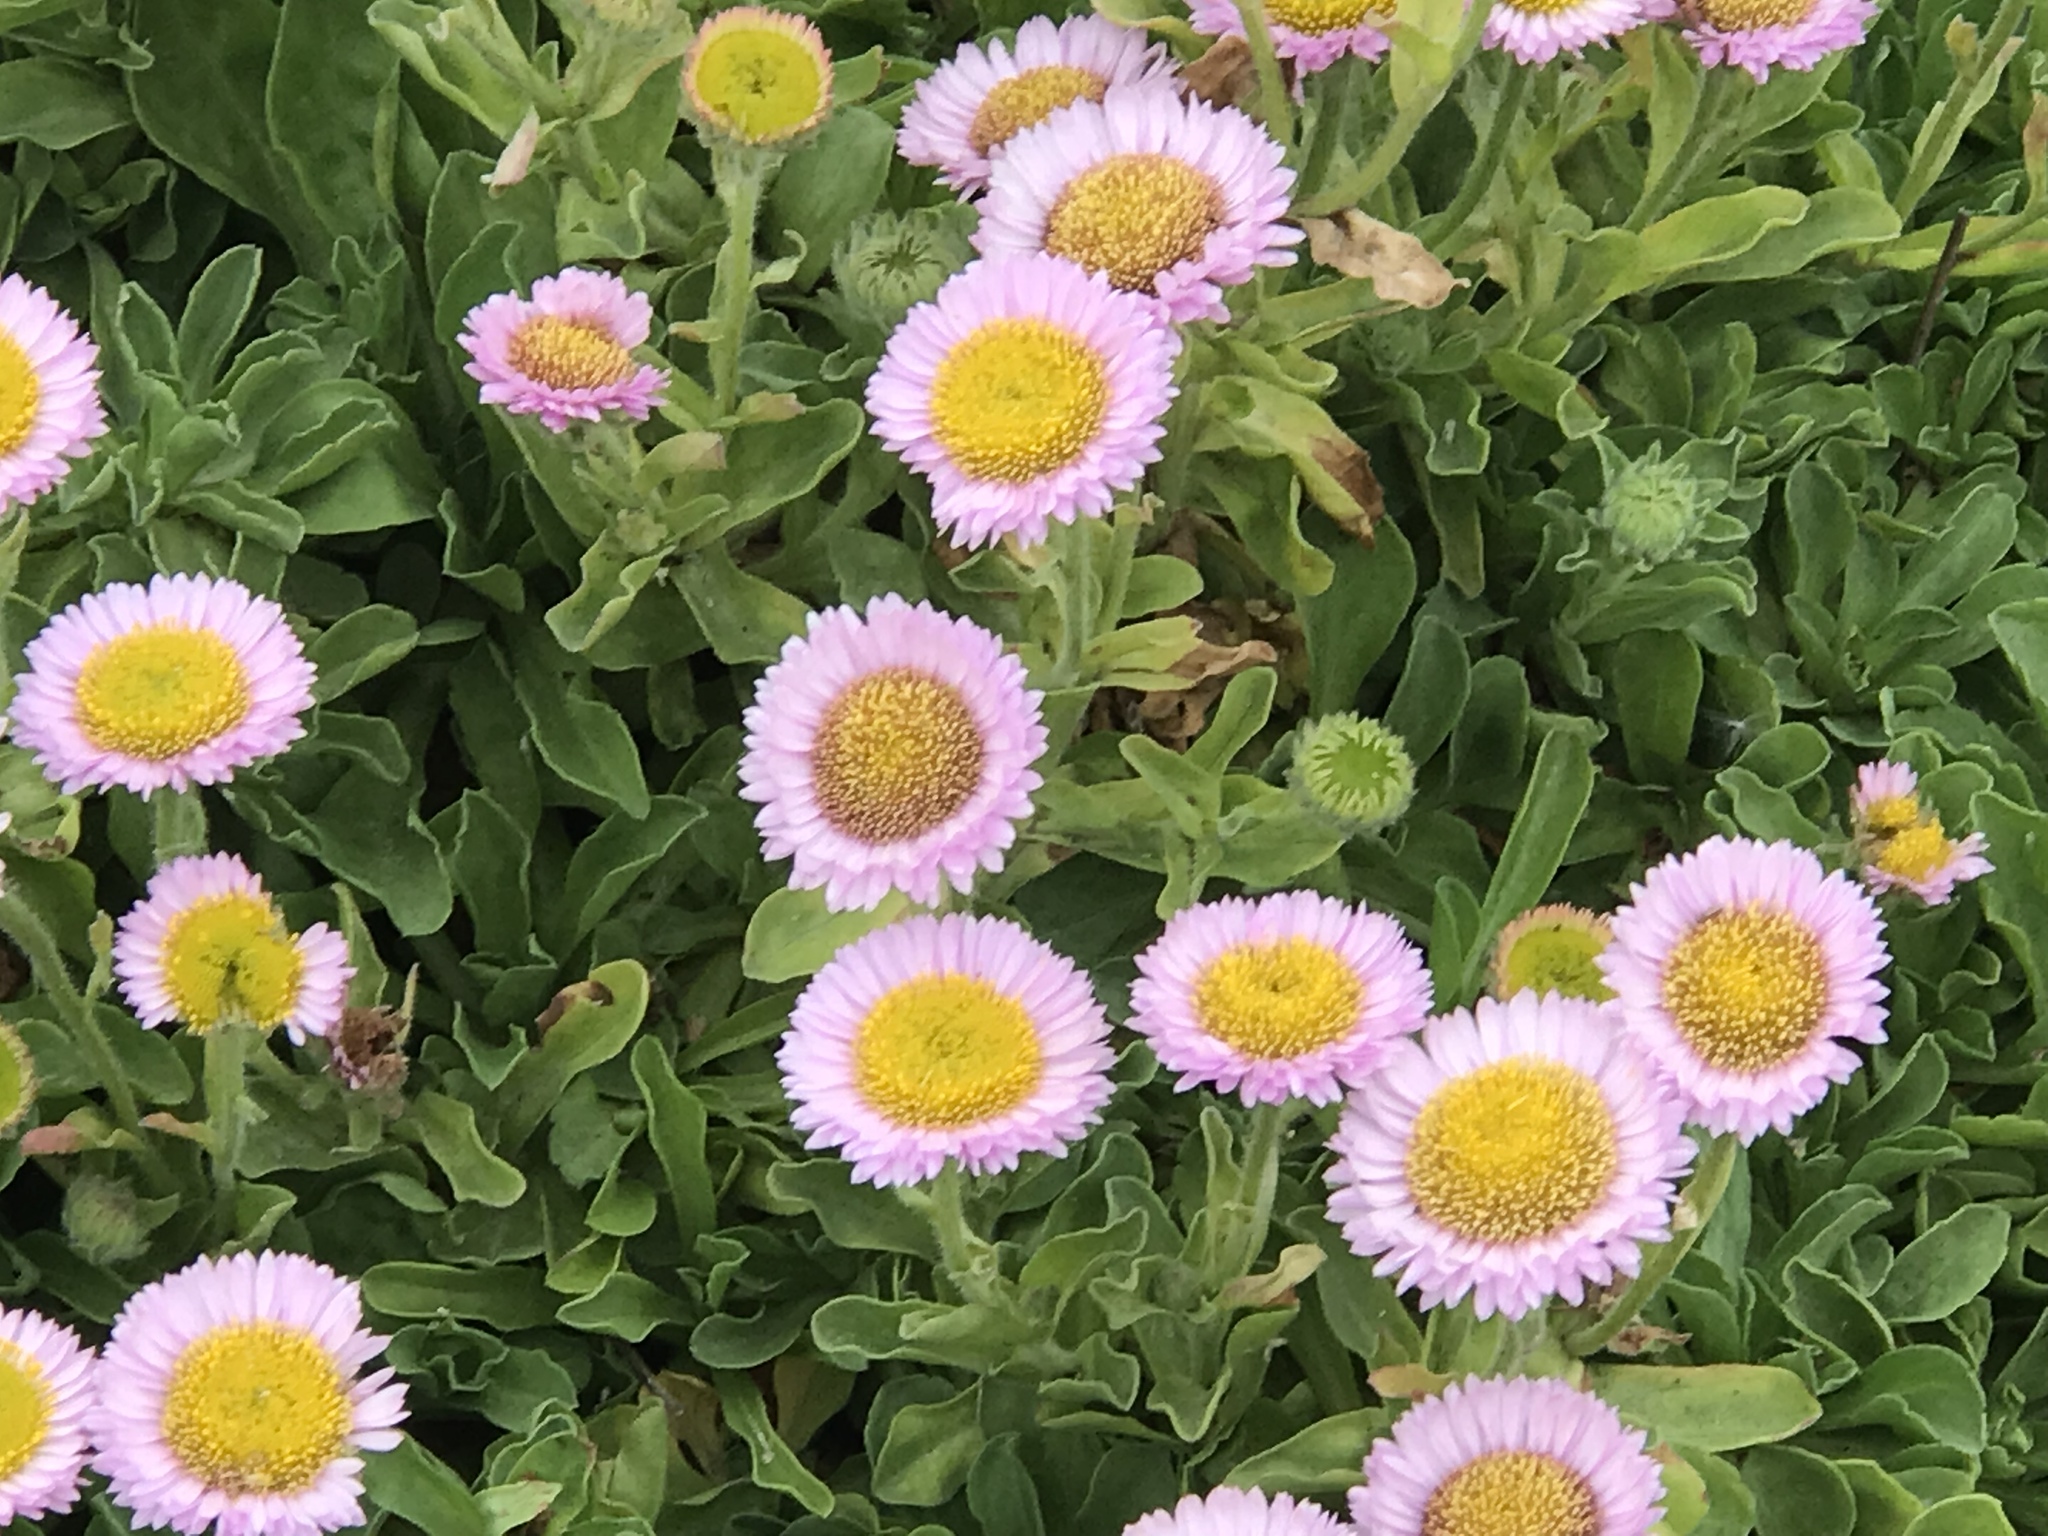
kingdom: Plantae
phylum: Tracheophyta
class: Magnoliopsida
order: Asterales
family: Asteraceae
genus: Erigeron
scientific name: Erigeron glaucus
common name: Seaside daisy
